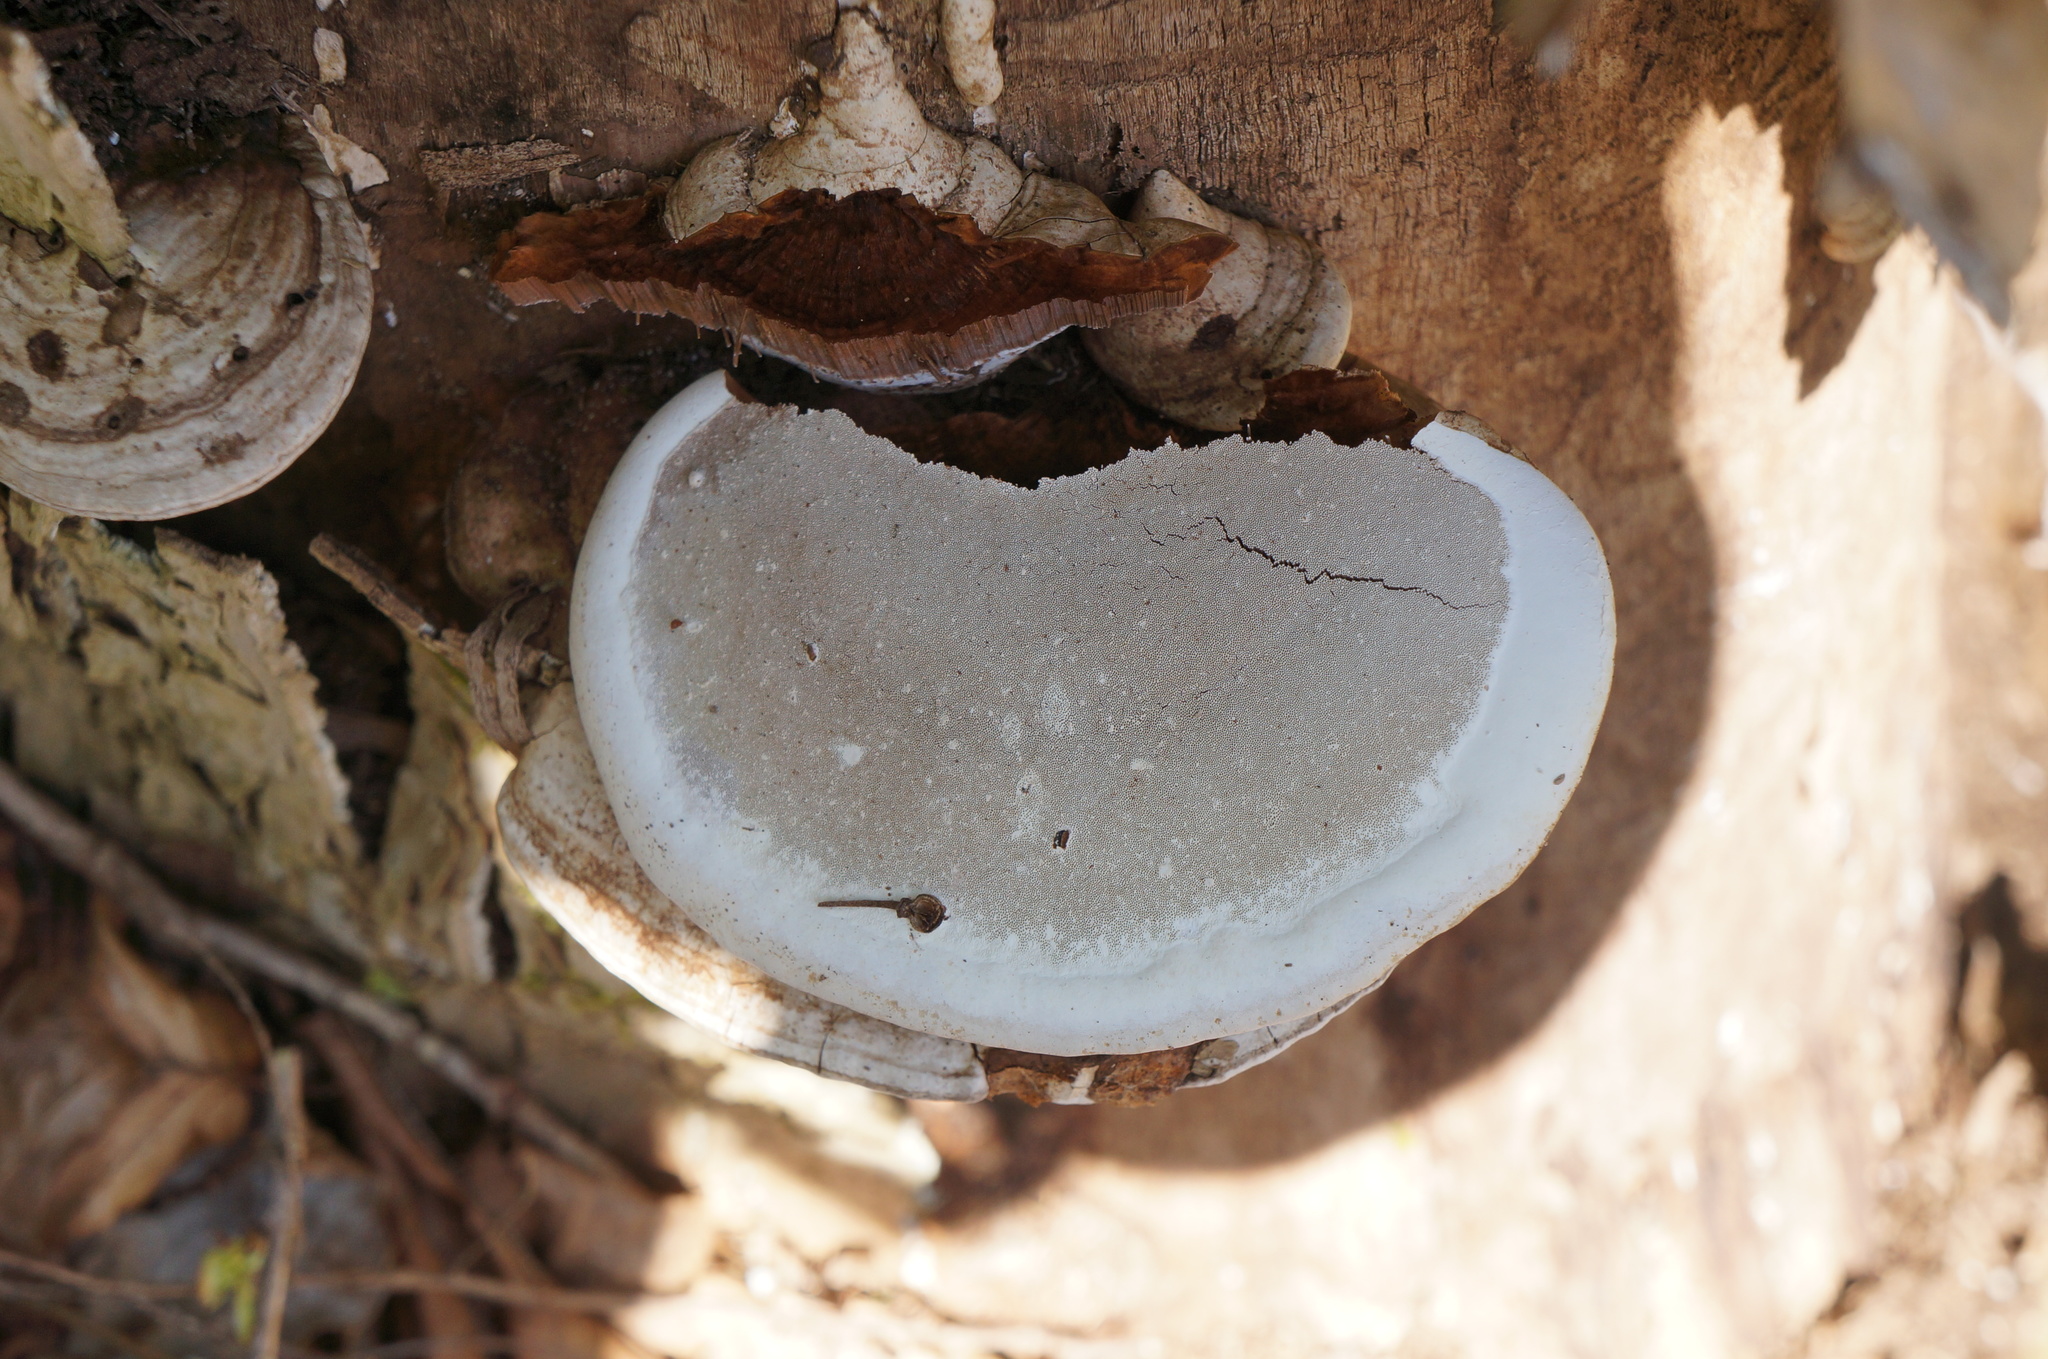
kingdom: Fungi
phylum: Basidiomycota
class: Agaricomycetes
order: Polyporales
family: Polyporaceae
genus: Ganoderma
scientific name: Ganoderma applanatum
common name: Artist's bracket
